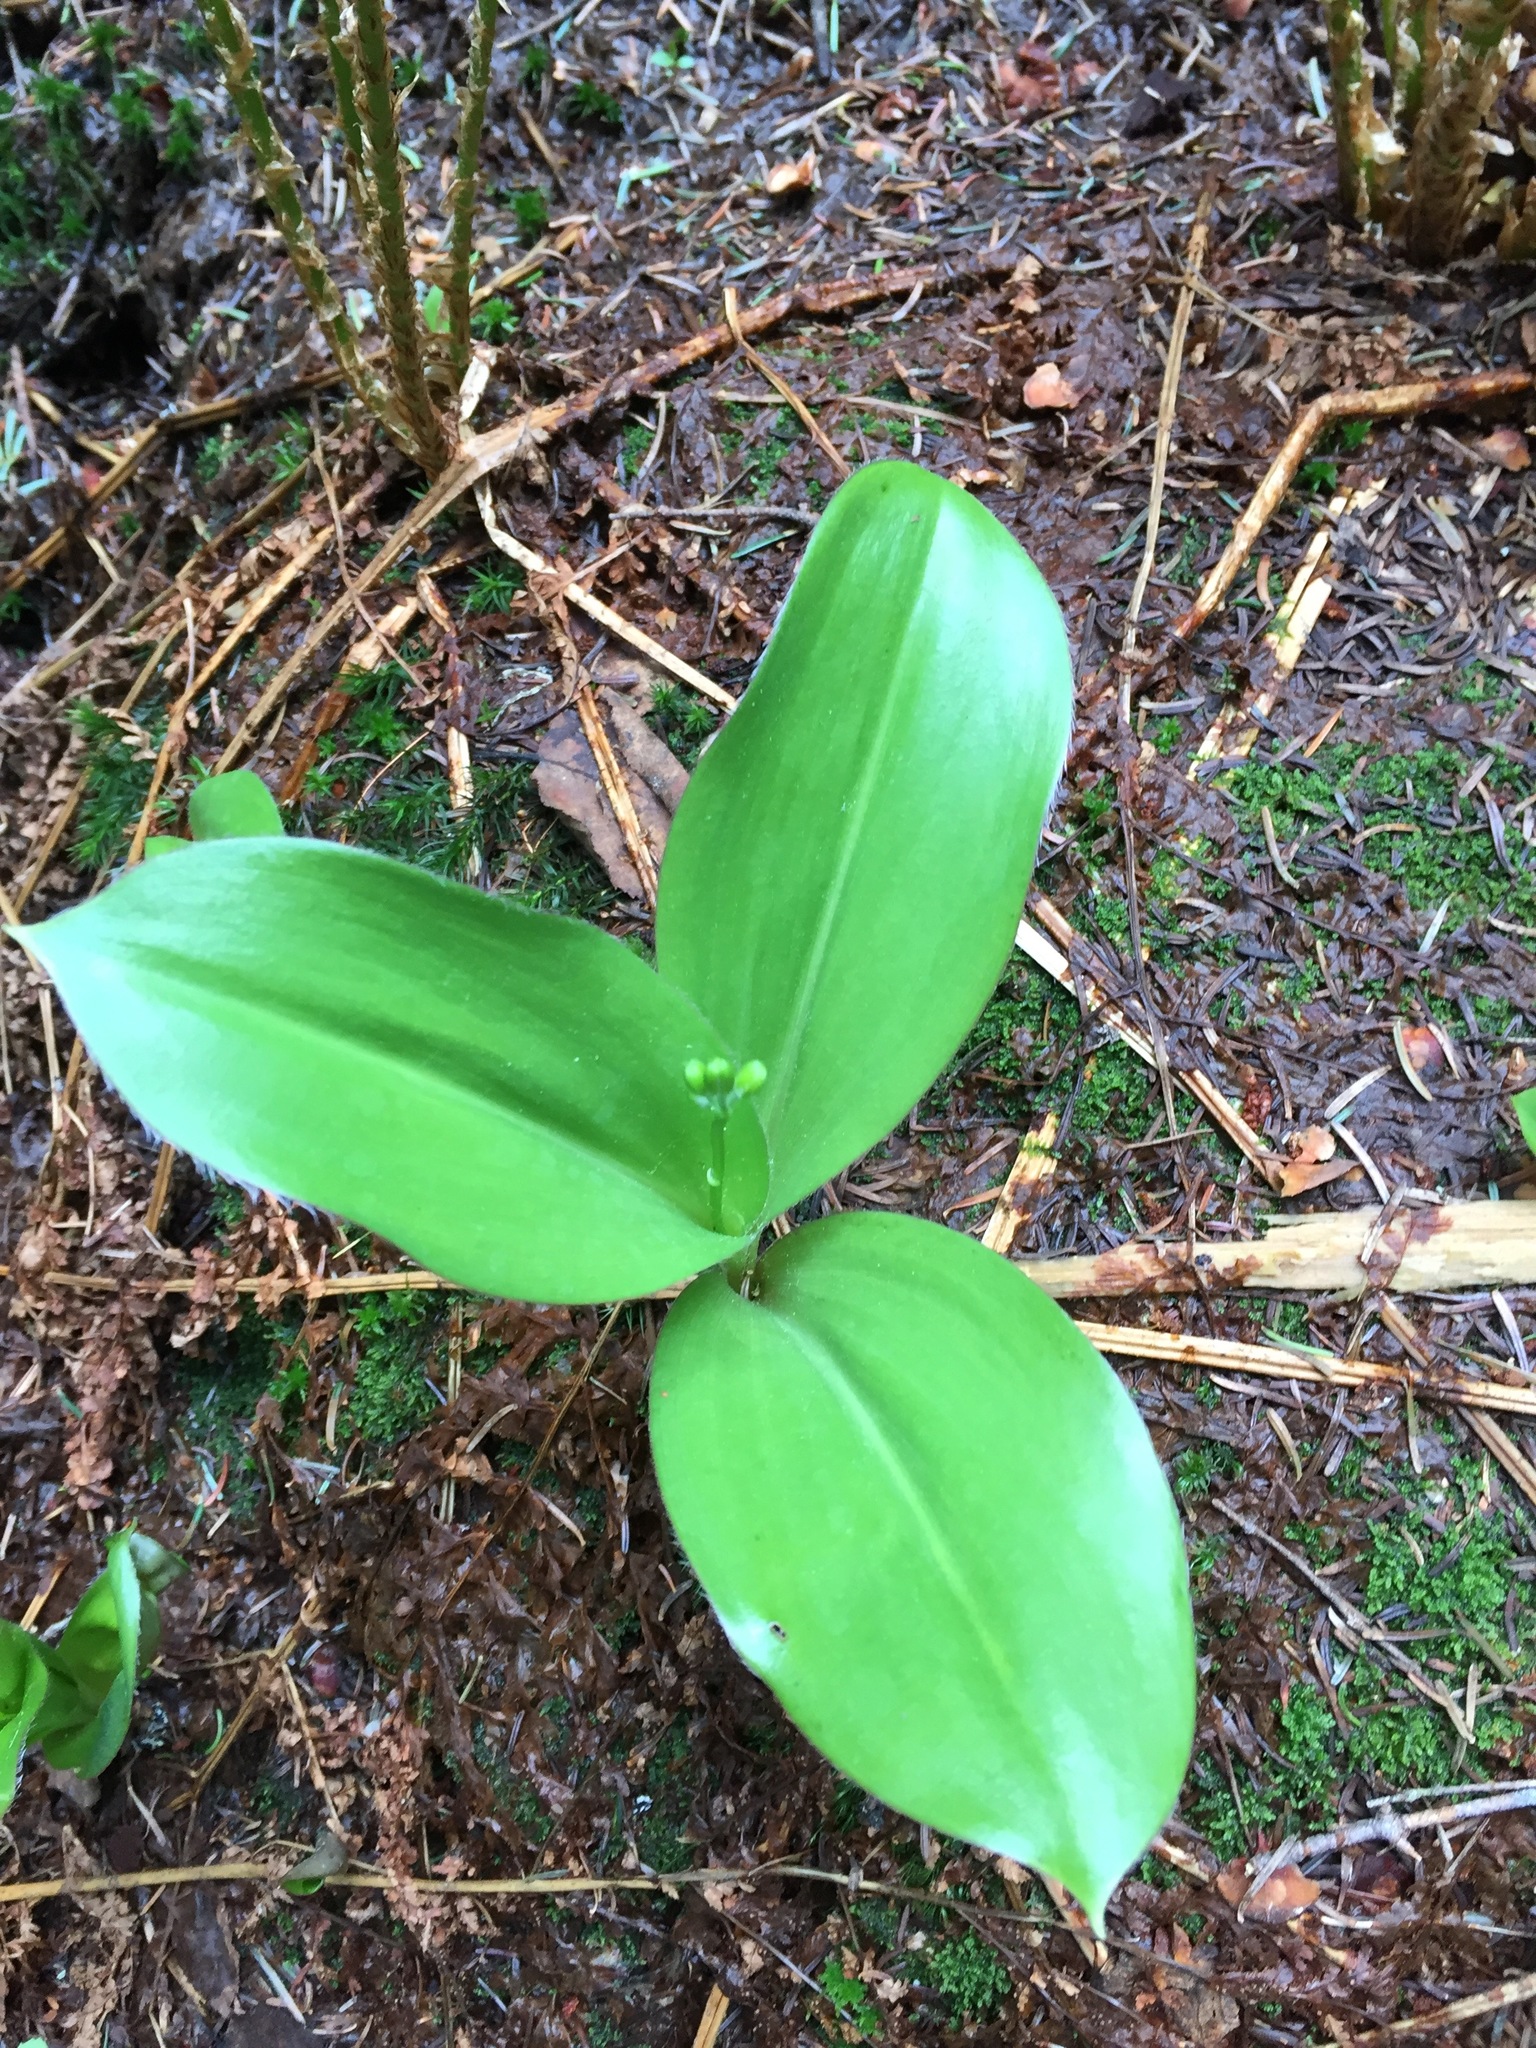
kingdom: Plantae
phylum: Tracheophyta
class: Liliopsida
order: Liliales
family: Liliaceae
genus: Clintonia
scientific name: Clintonia borealis
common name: Yellow clintonia
